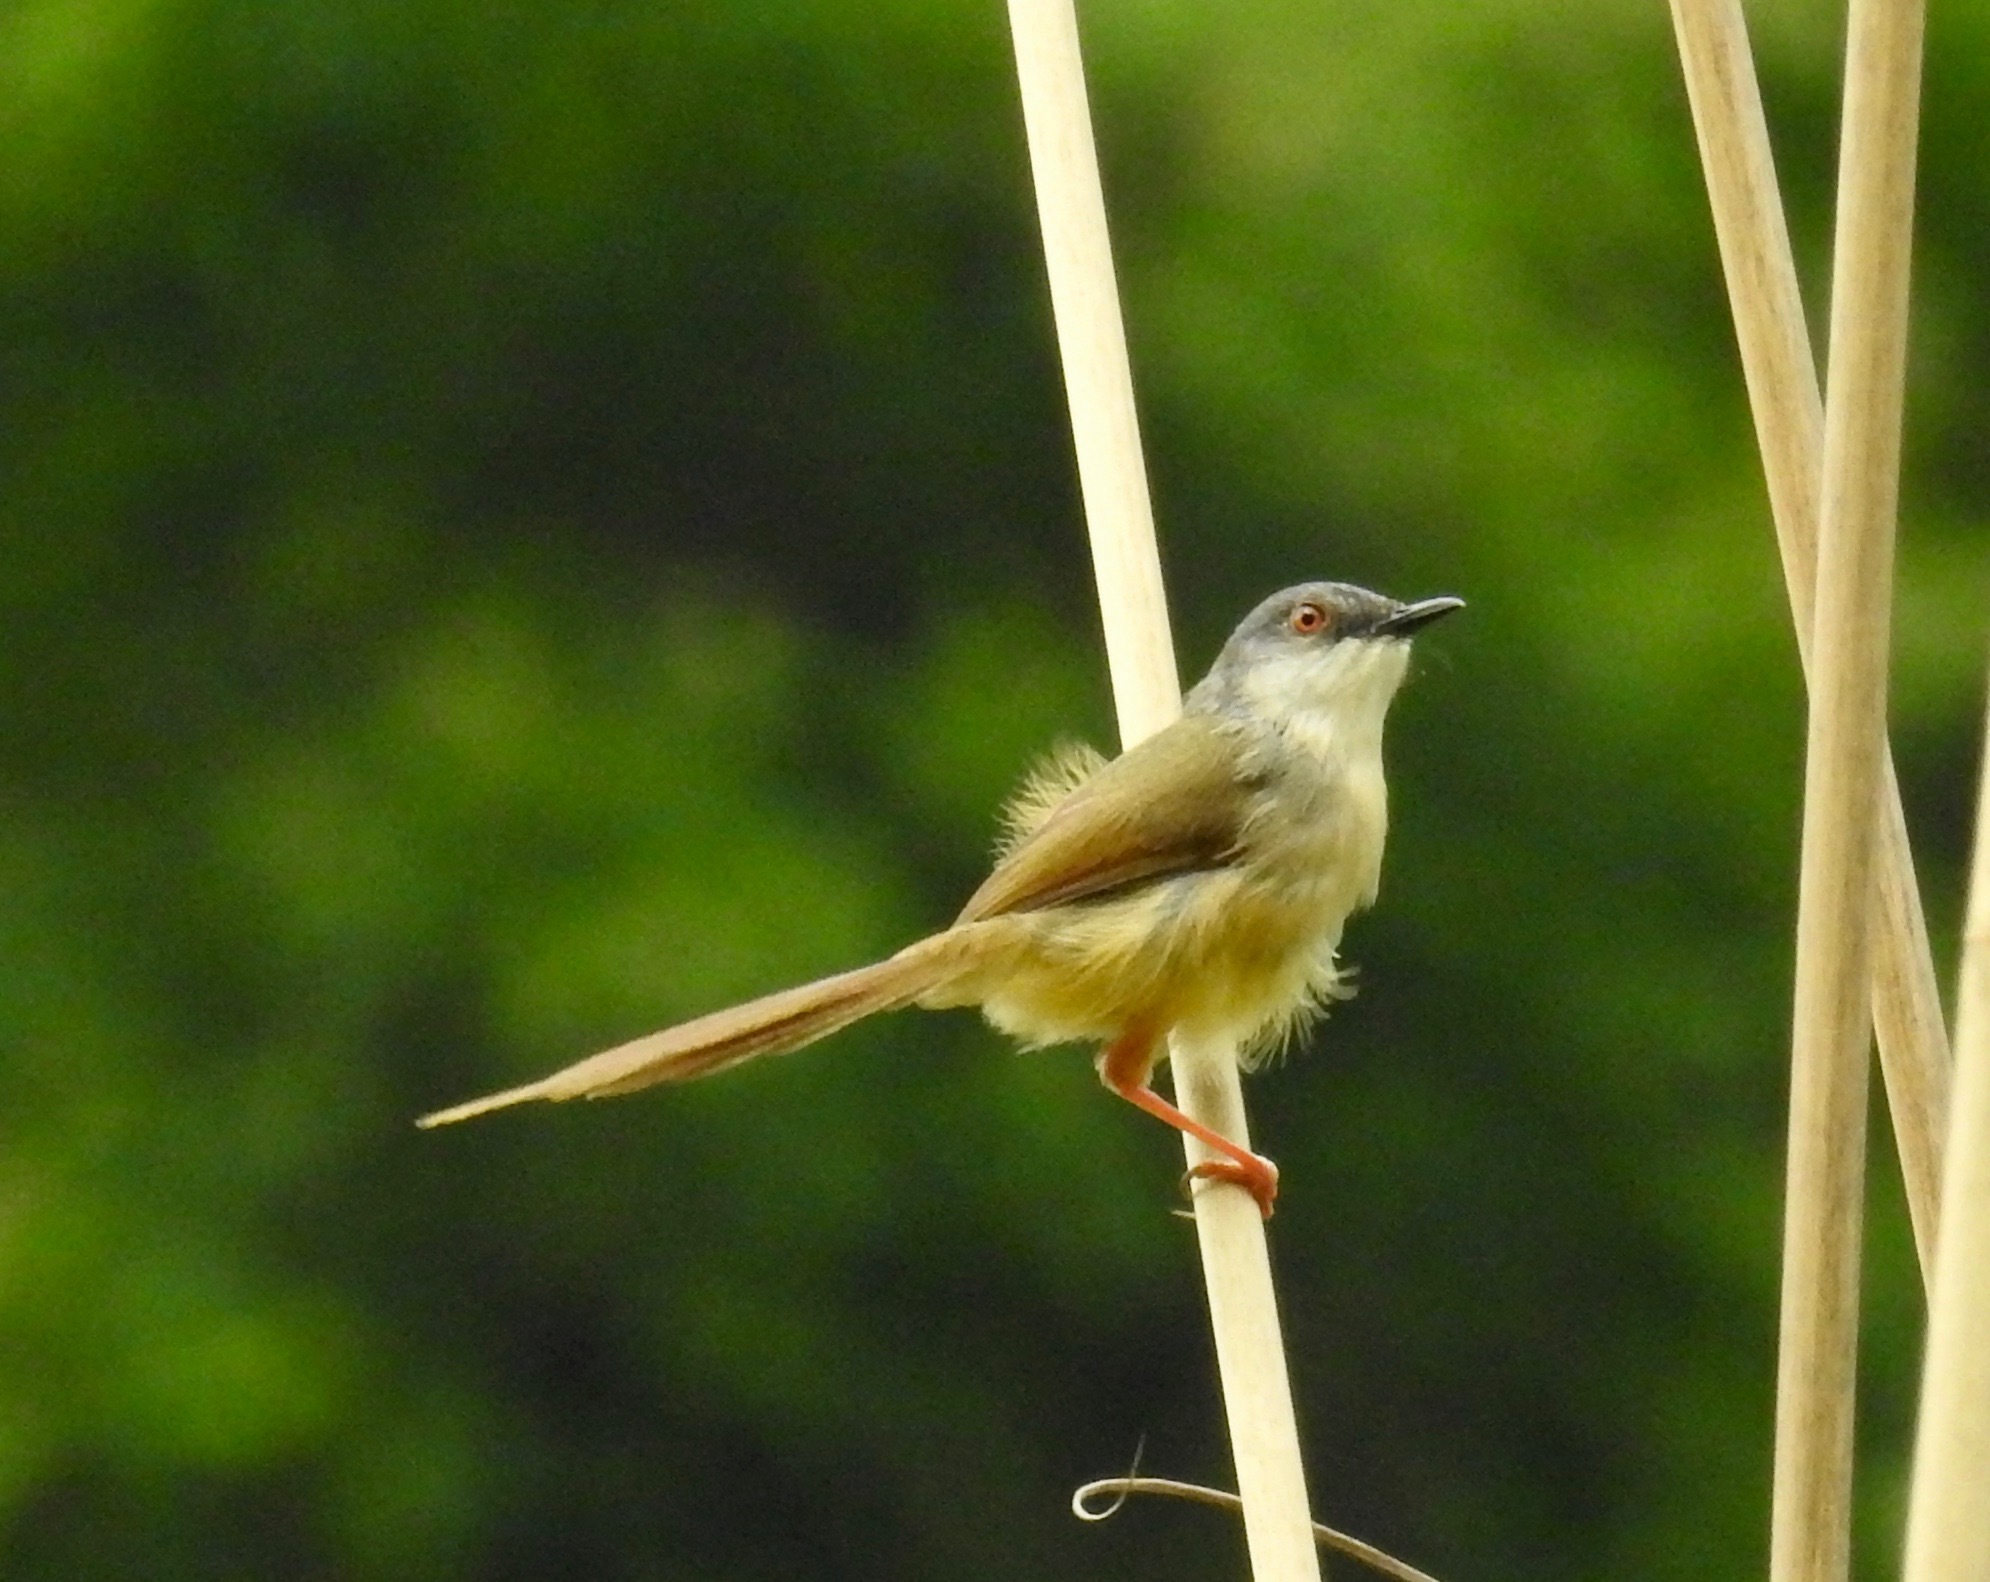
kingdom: Animalia
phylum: Chordata
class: Aves
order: Passeriformes
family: Cisticolidae
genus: Prinia
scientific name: Prinia flaviventris
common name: Yellow-bellied prinia
